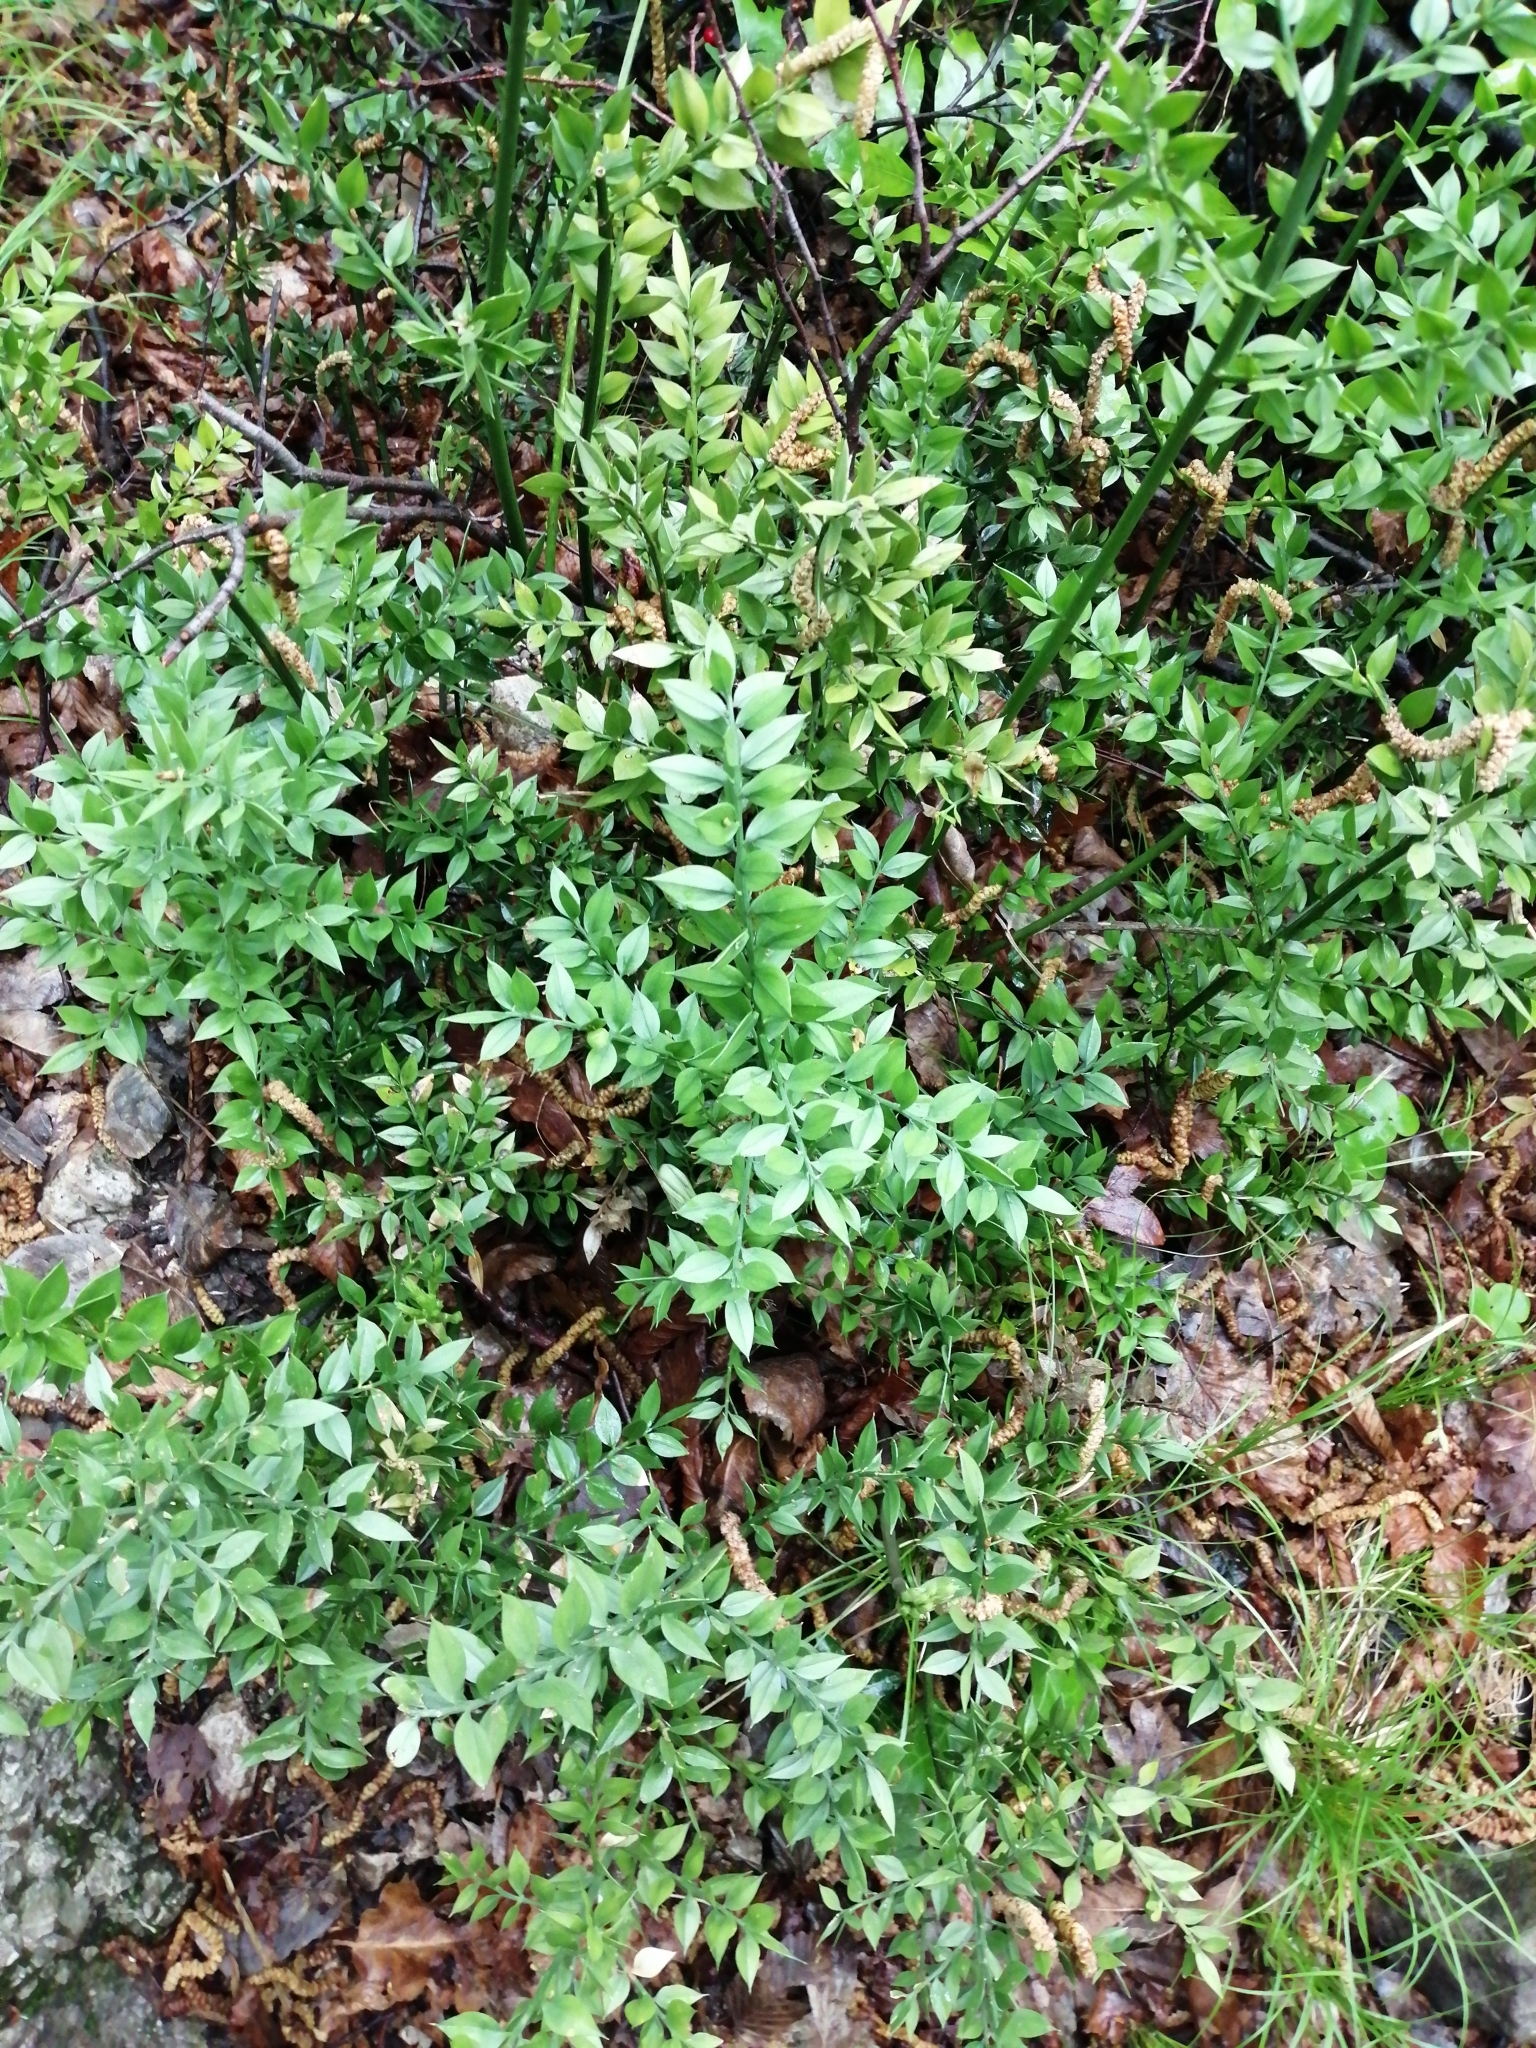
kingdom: Plantae
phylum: Tracheophyta
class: Liliopsida
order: Asparagales
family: Asparagaceae
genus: Ruscus
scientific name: Ruscus aculeatus
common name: Butcher's-broom
